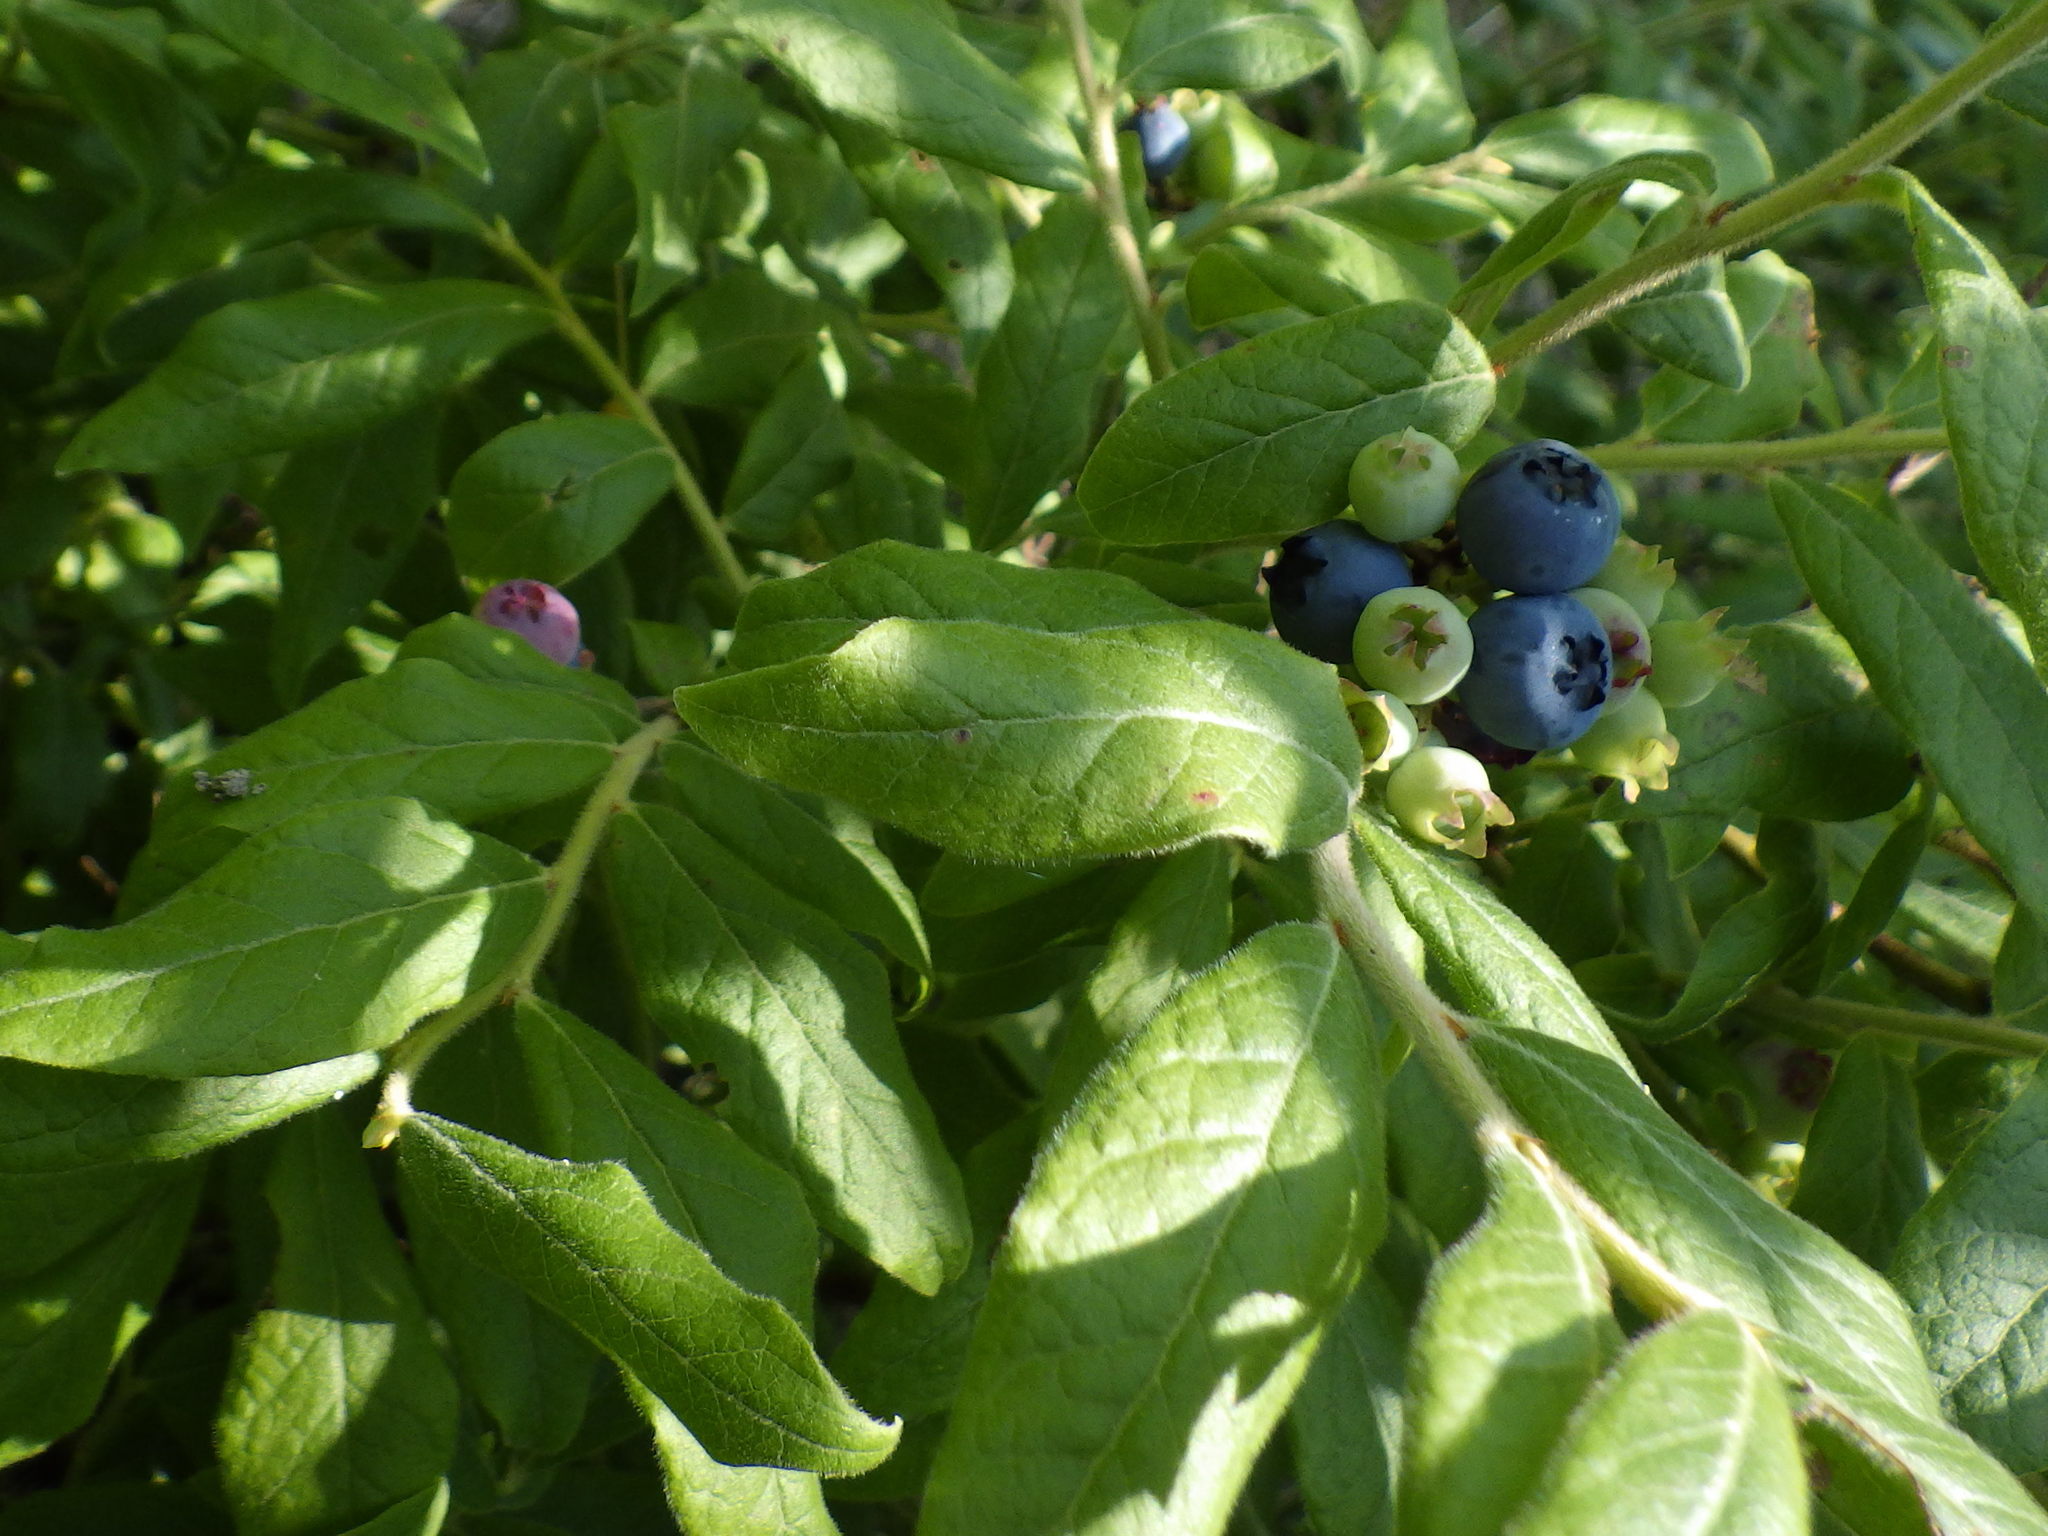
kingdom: Plantae
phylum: Tracheophyta
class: Magnoliopsida
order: Ericales
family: Ericaceae
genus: Vaccinium
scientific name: Vaccinium myrtilloides
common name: Canada blueberry
